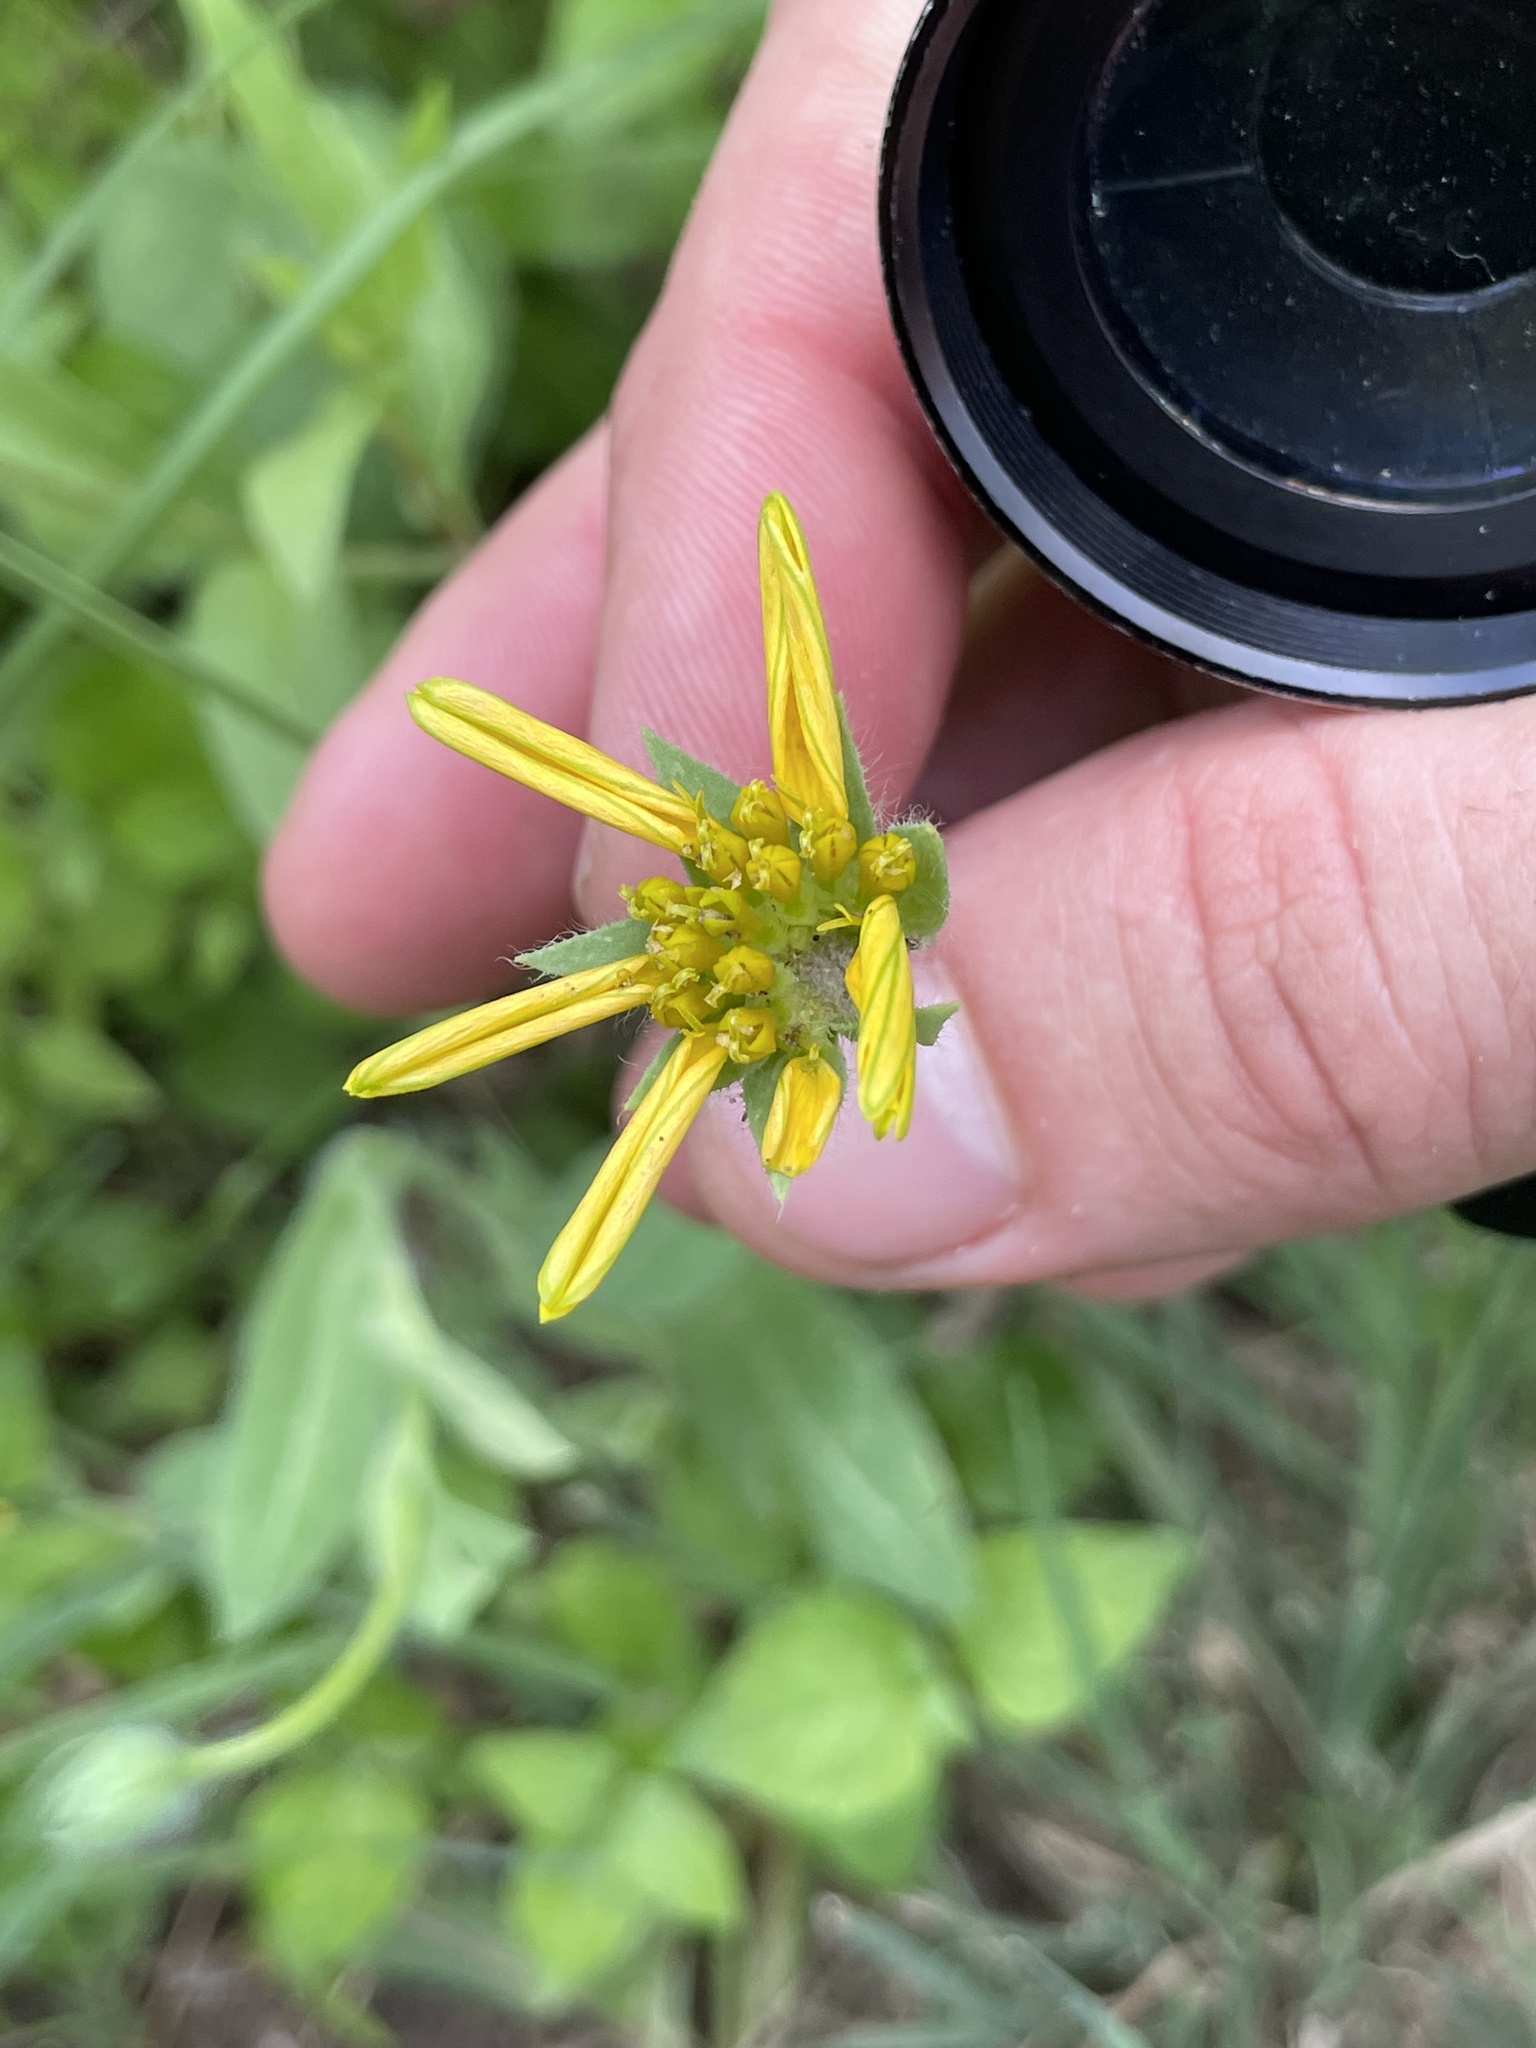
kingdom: Plantae
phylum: Tracheophyta
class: Magnoliopsida
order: Asterales
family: Asteraceae
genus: Amblyolepis
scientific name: Amblyolepis setigera
